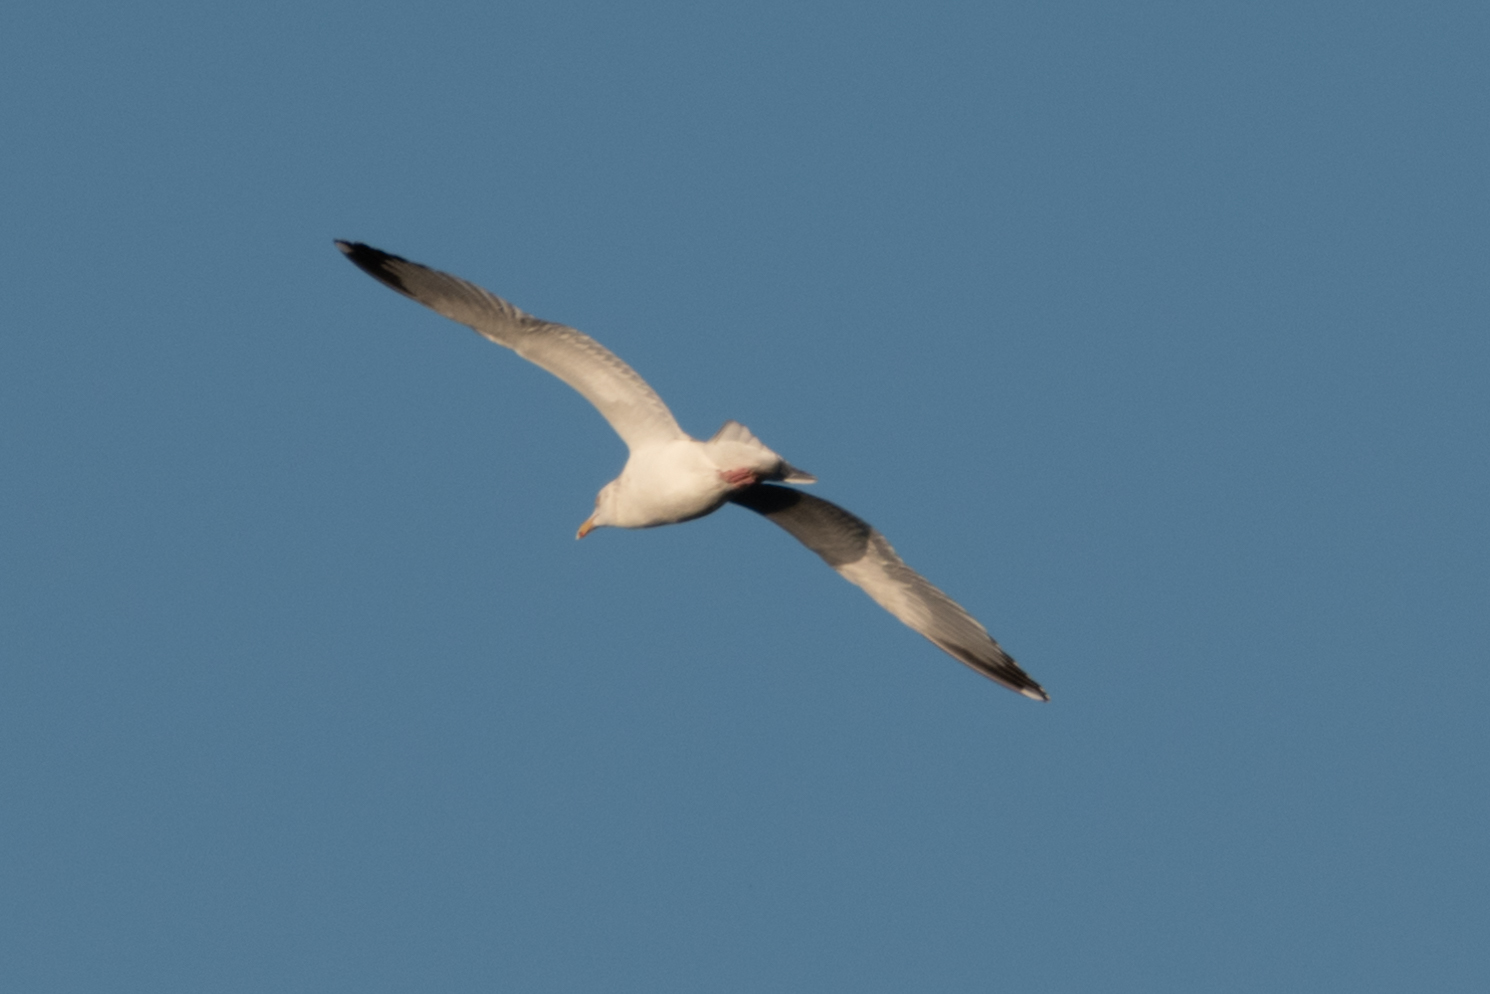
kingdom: Animalia
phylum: Chordata
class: Aves
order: Charadriiformes
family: Laridae
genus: Larus
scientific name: Larus argentatus
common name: Herring gull
